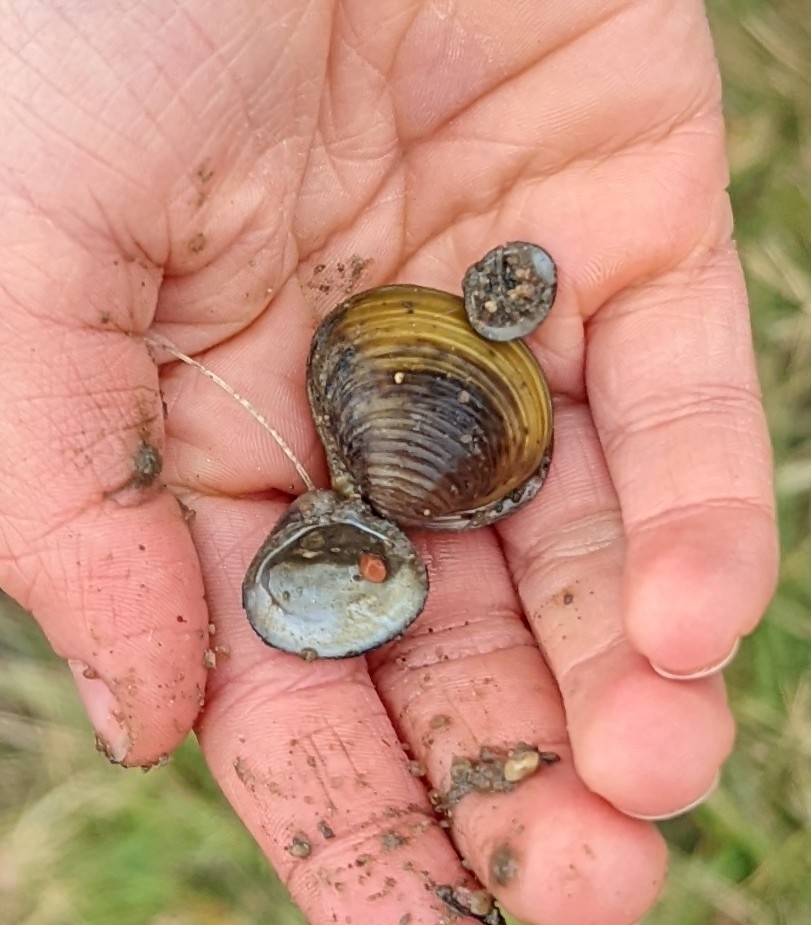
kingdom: Animalia
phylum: Mollusca
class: Bivalvia
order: Venerida
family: Cyrenidae
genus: Corbicula
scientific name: Corbicula fluminea
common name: Asian clam
